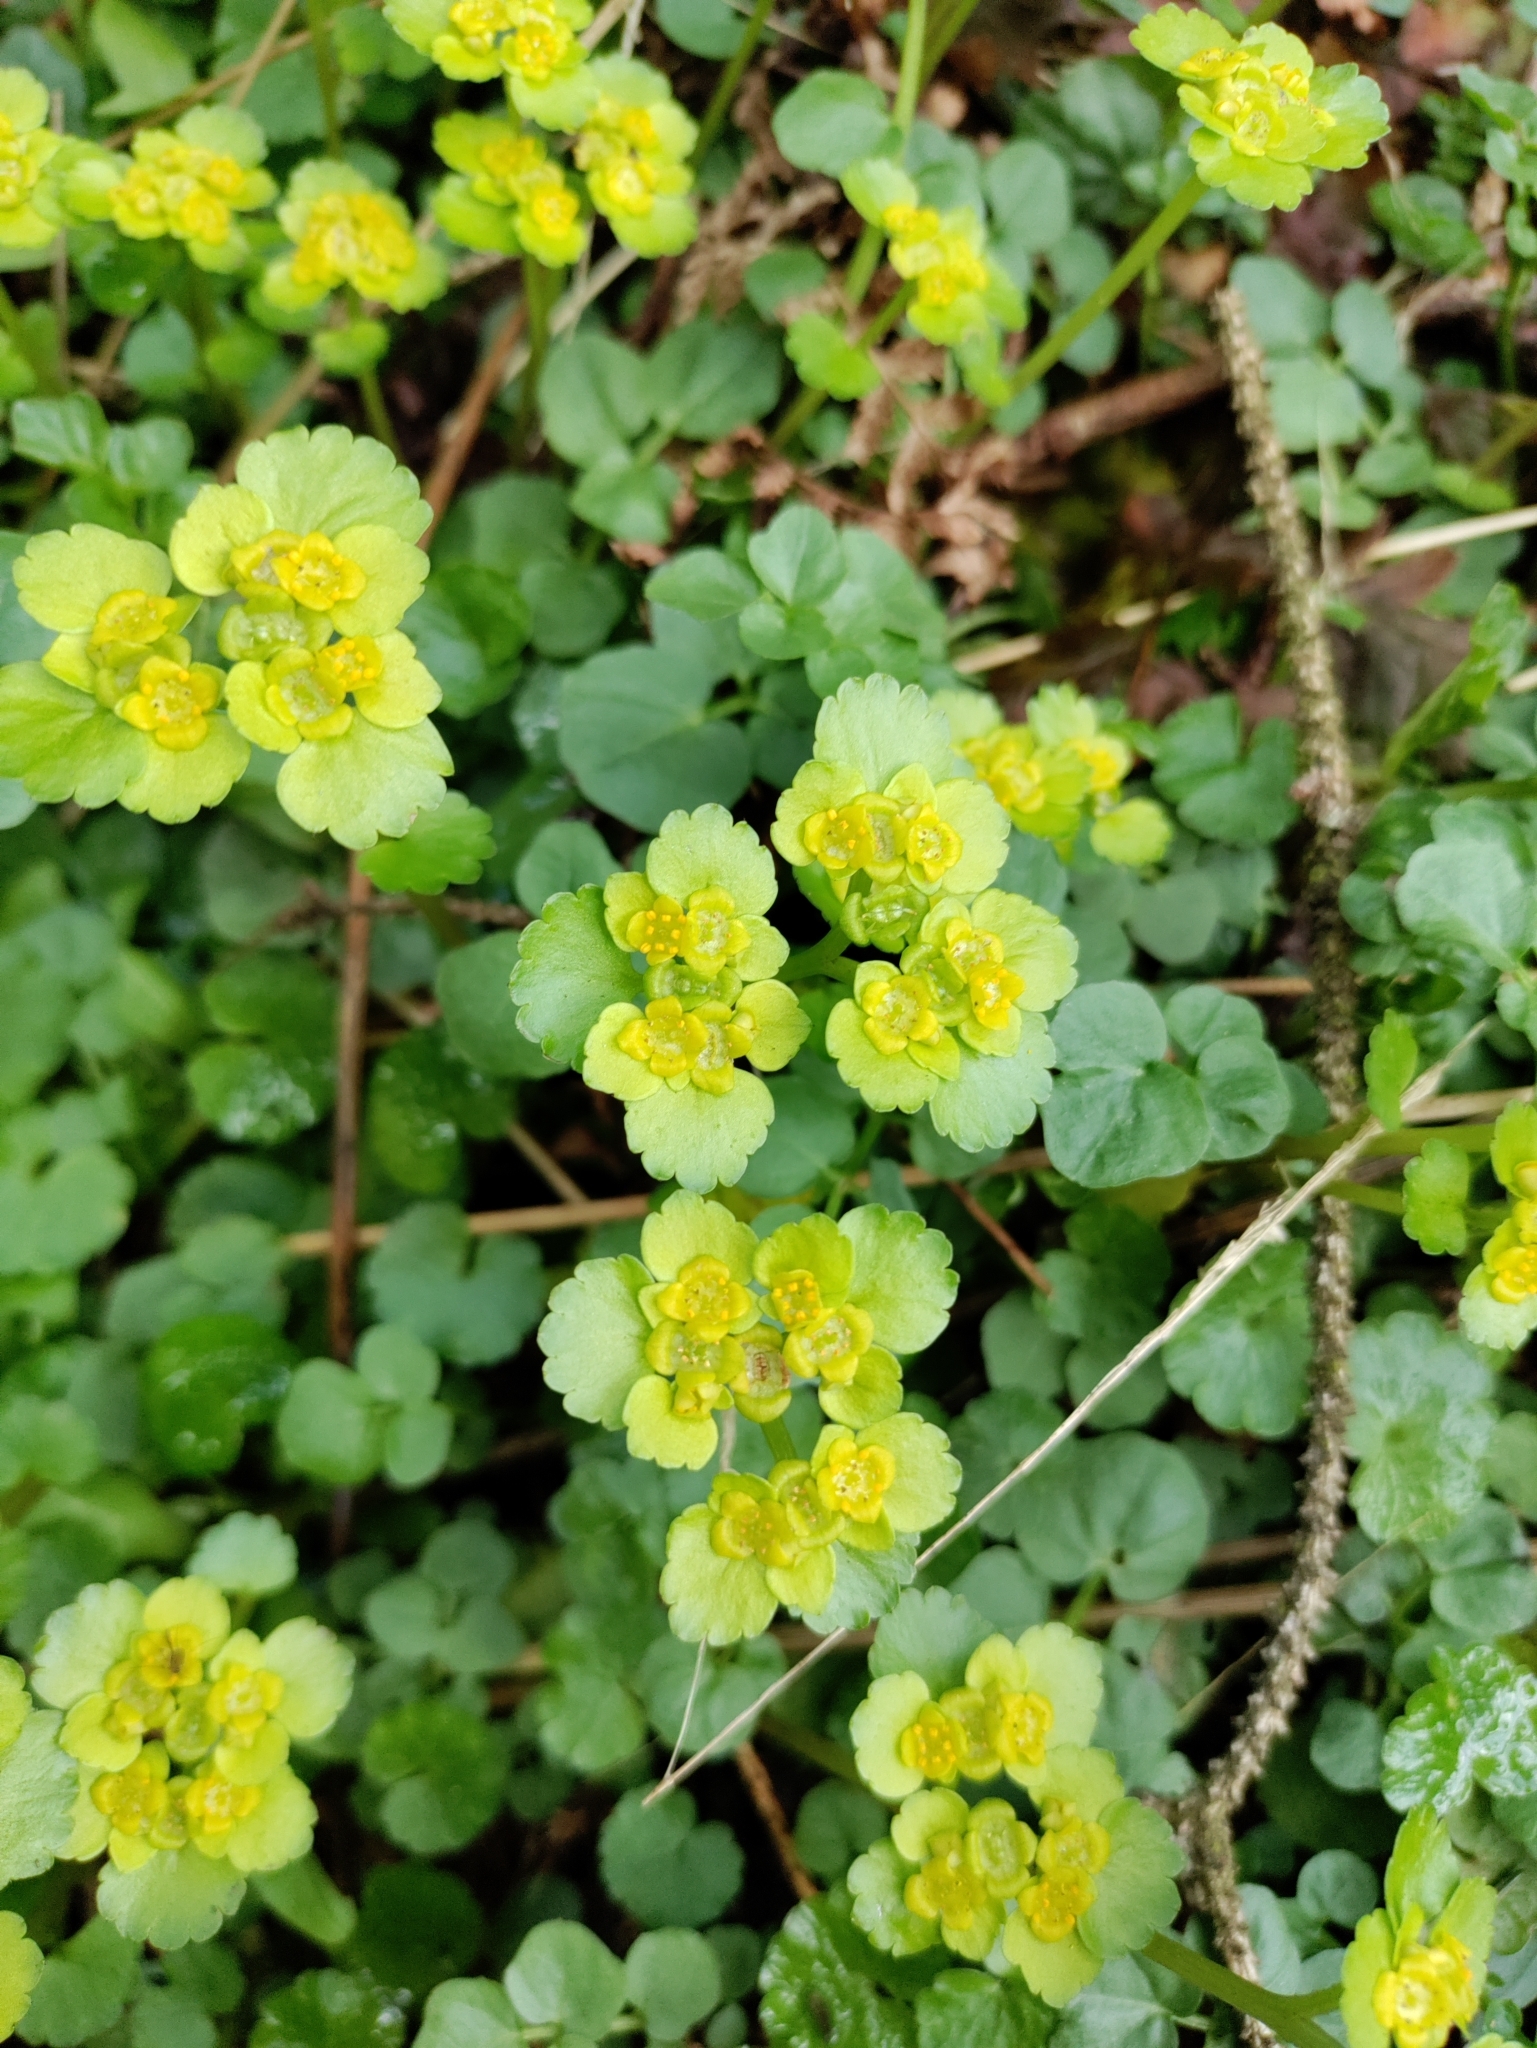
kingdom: Plantae
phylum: Tracheophyta
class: Magnoliopsida
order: Saxifragales
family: Saxifragaceae
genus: Chrysosplenium
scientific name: Chrysosplenium alternifolium
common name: Alternate-leaved golden-saxifrage
